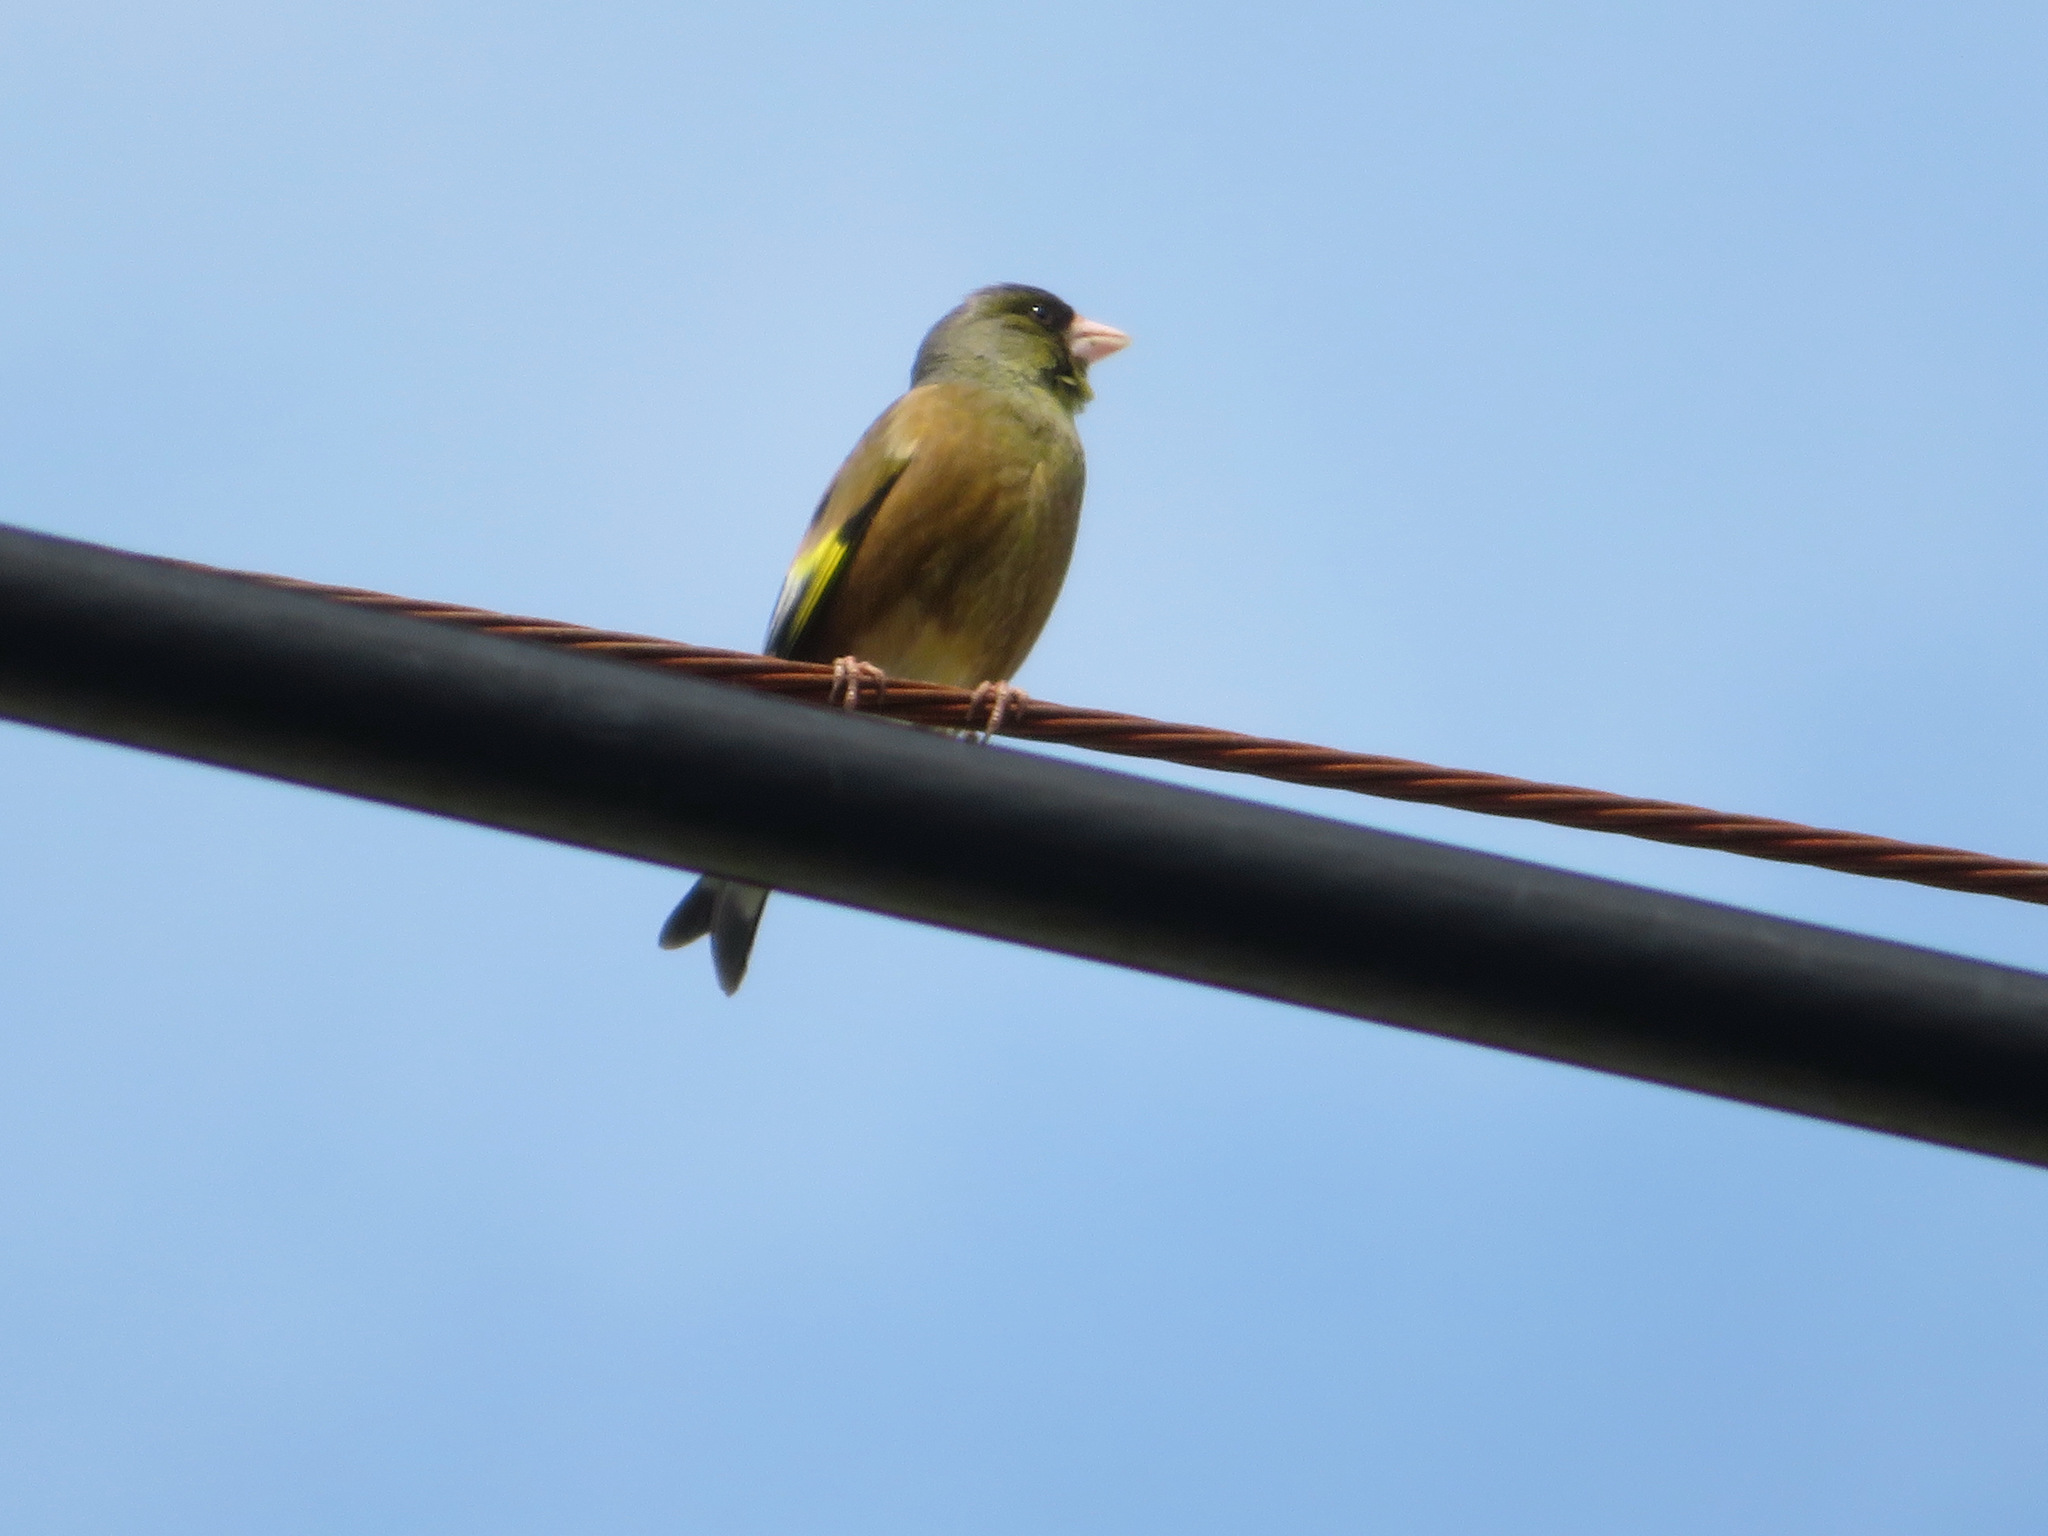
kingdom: Plantae
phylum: Tracheophyta
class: Liliopsida
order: Poales
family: Poaceae
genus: Chloris
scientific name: Chloris sinica
